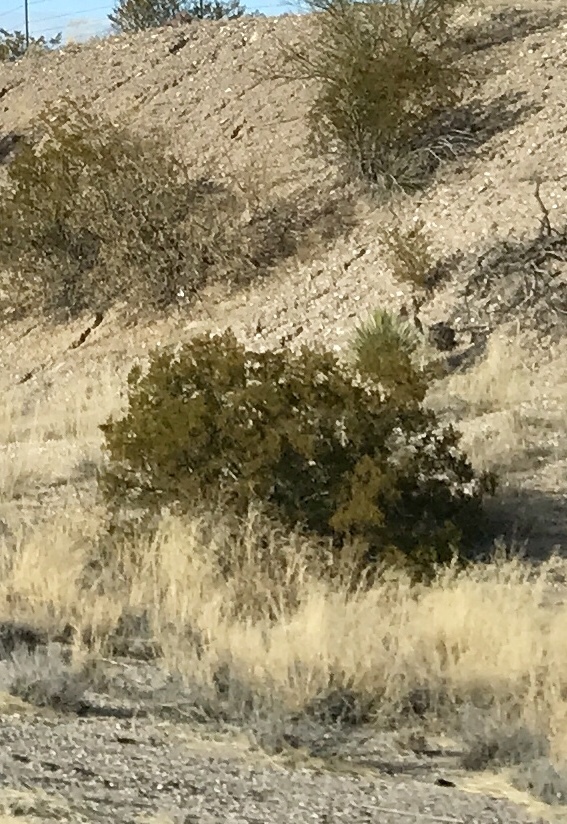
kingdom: Plantae
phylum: Tracheophyta
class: Magnoliopsida
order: Zygophyllales
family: Zygophyllaceae
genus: Larrea
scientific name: Larrea tridentata
